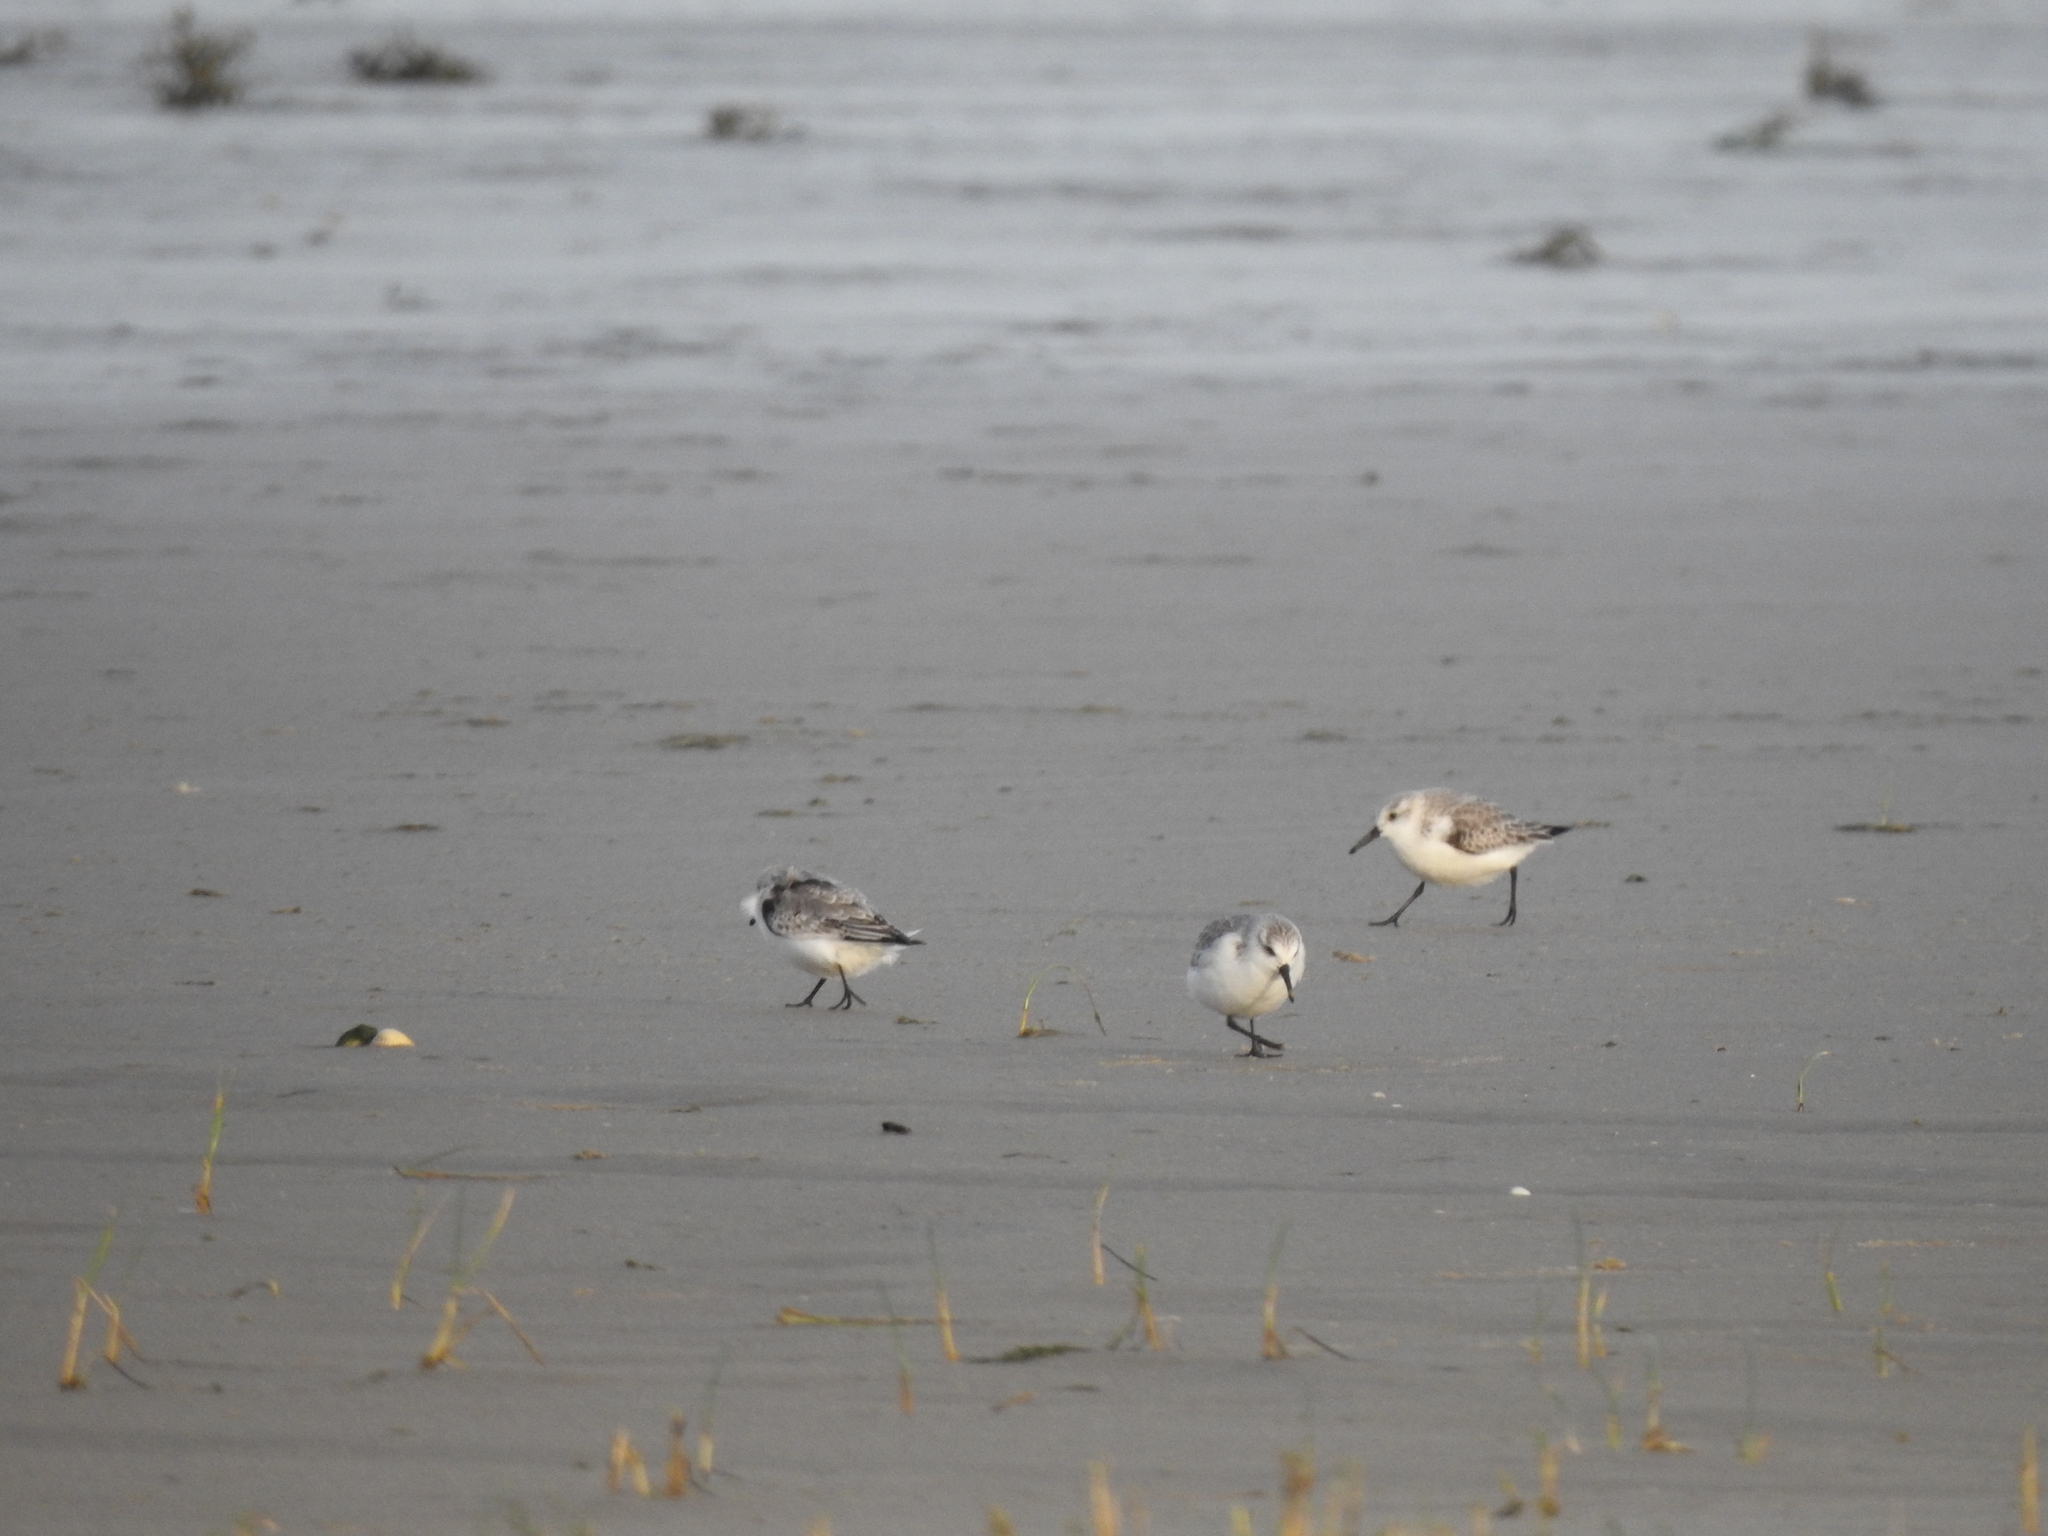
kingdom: Animalia
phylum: Chordata
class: Aves
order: Charadriiformes
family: Scolopacidae
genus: Calidris
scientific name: Calidris alba
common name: Sanderling
